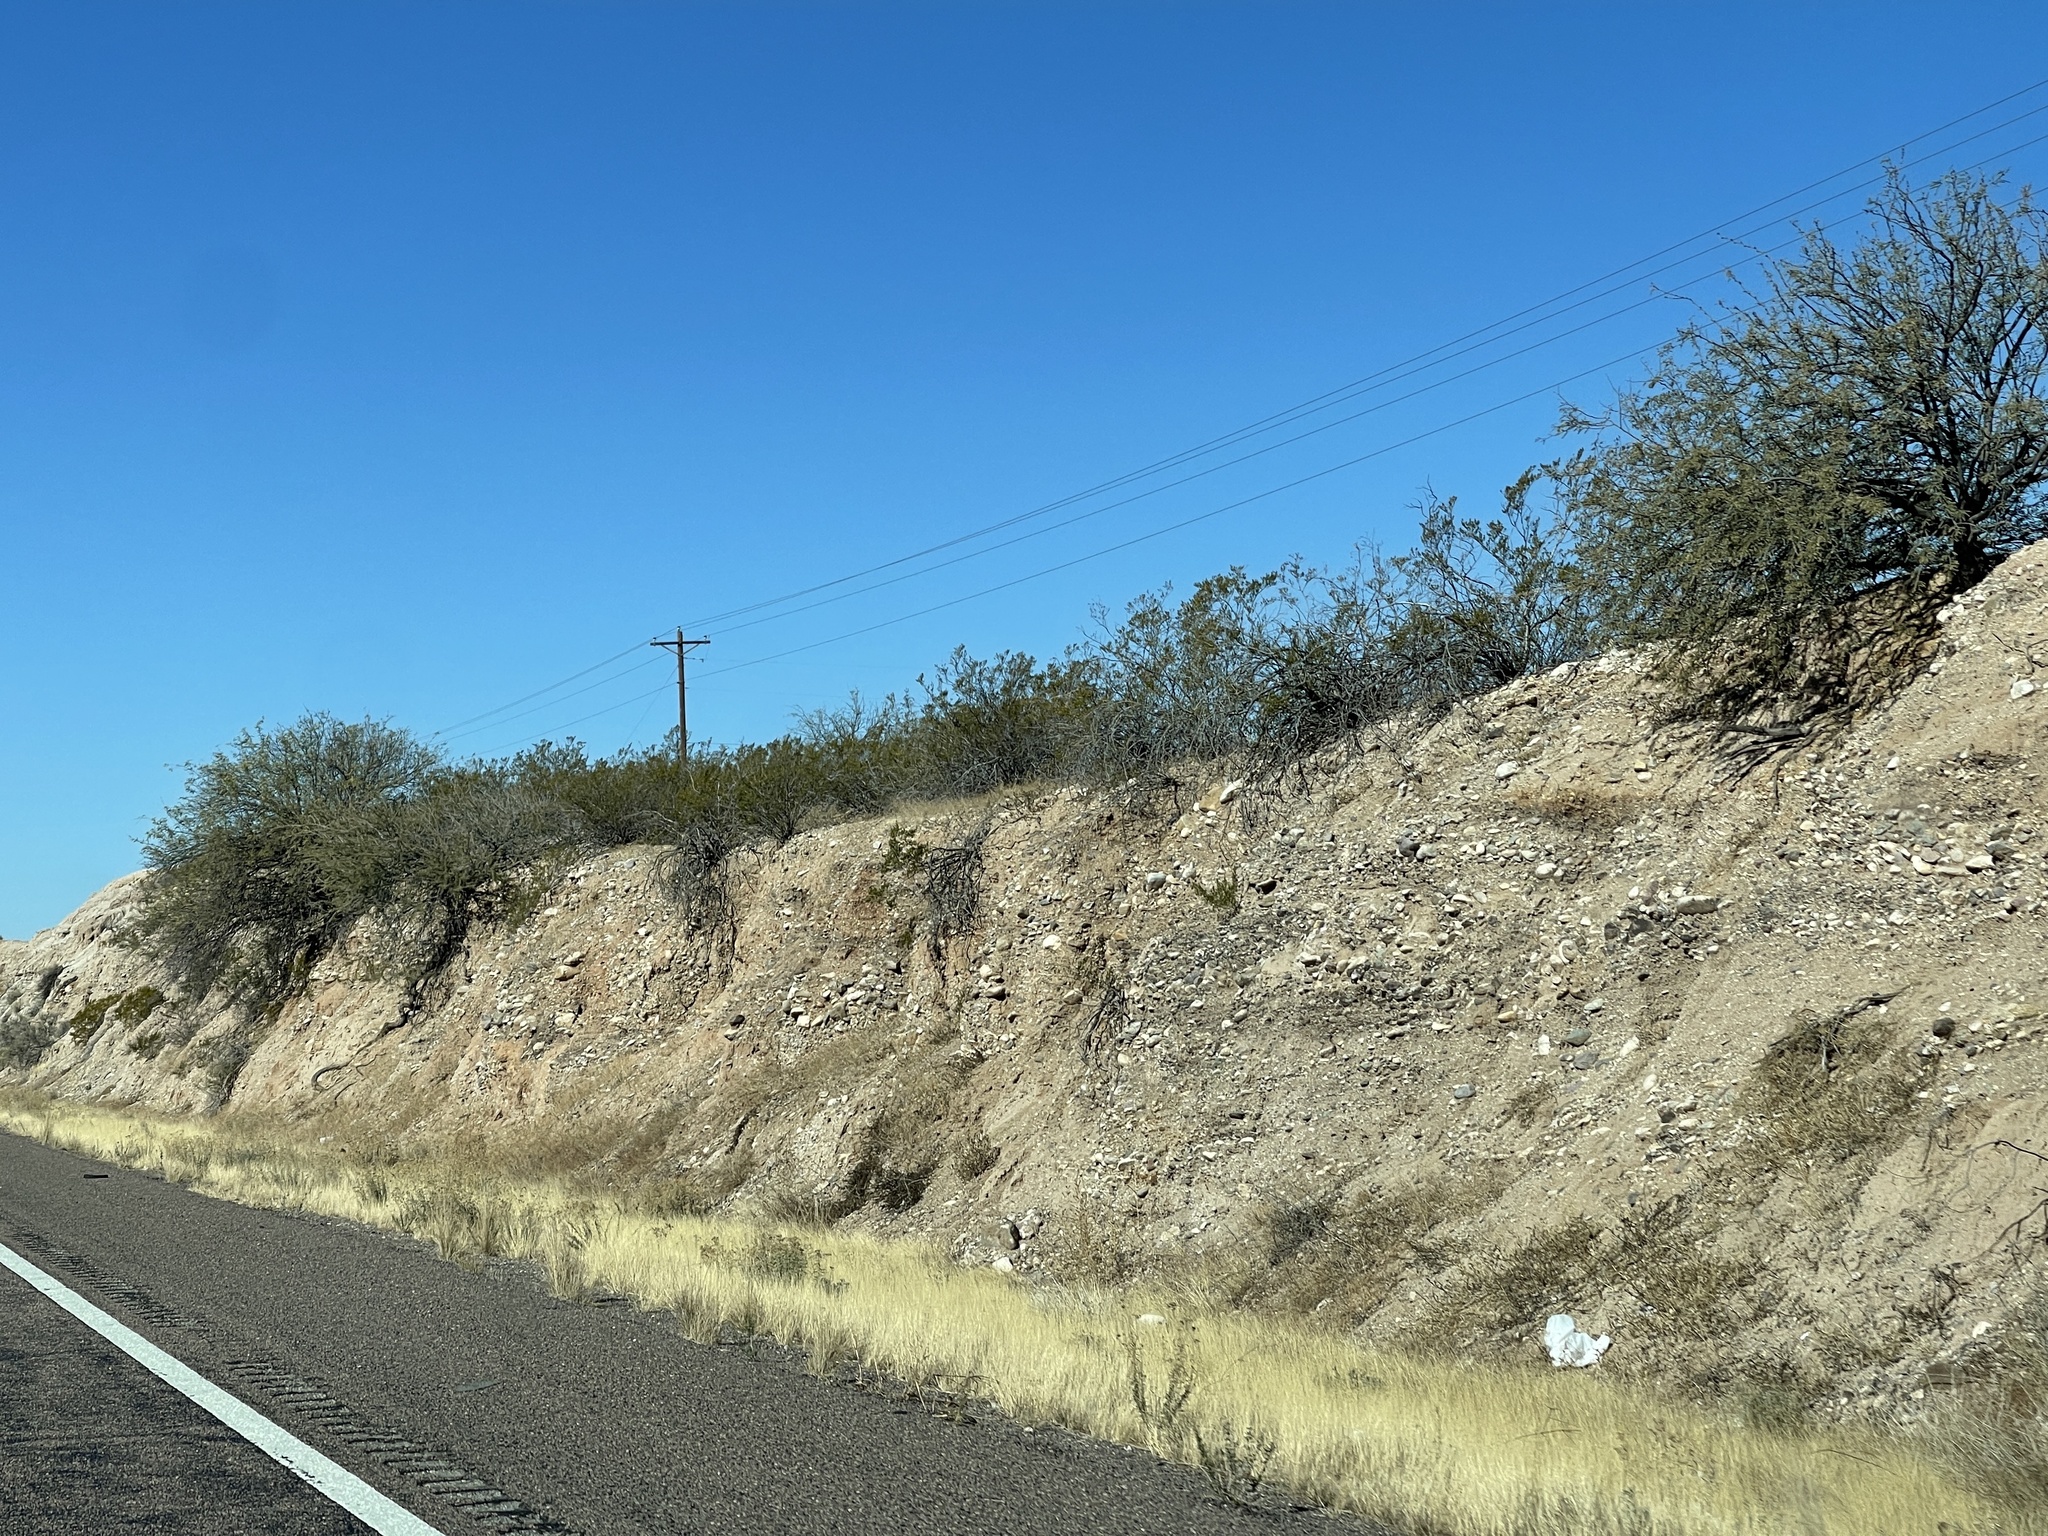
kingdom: Plantae
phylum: Tracheophyta
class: Magnoliopsida
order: Zygophyllales
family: Zygophyllaceae
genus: Larrea
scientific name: Larrea tridentata
